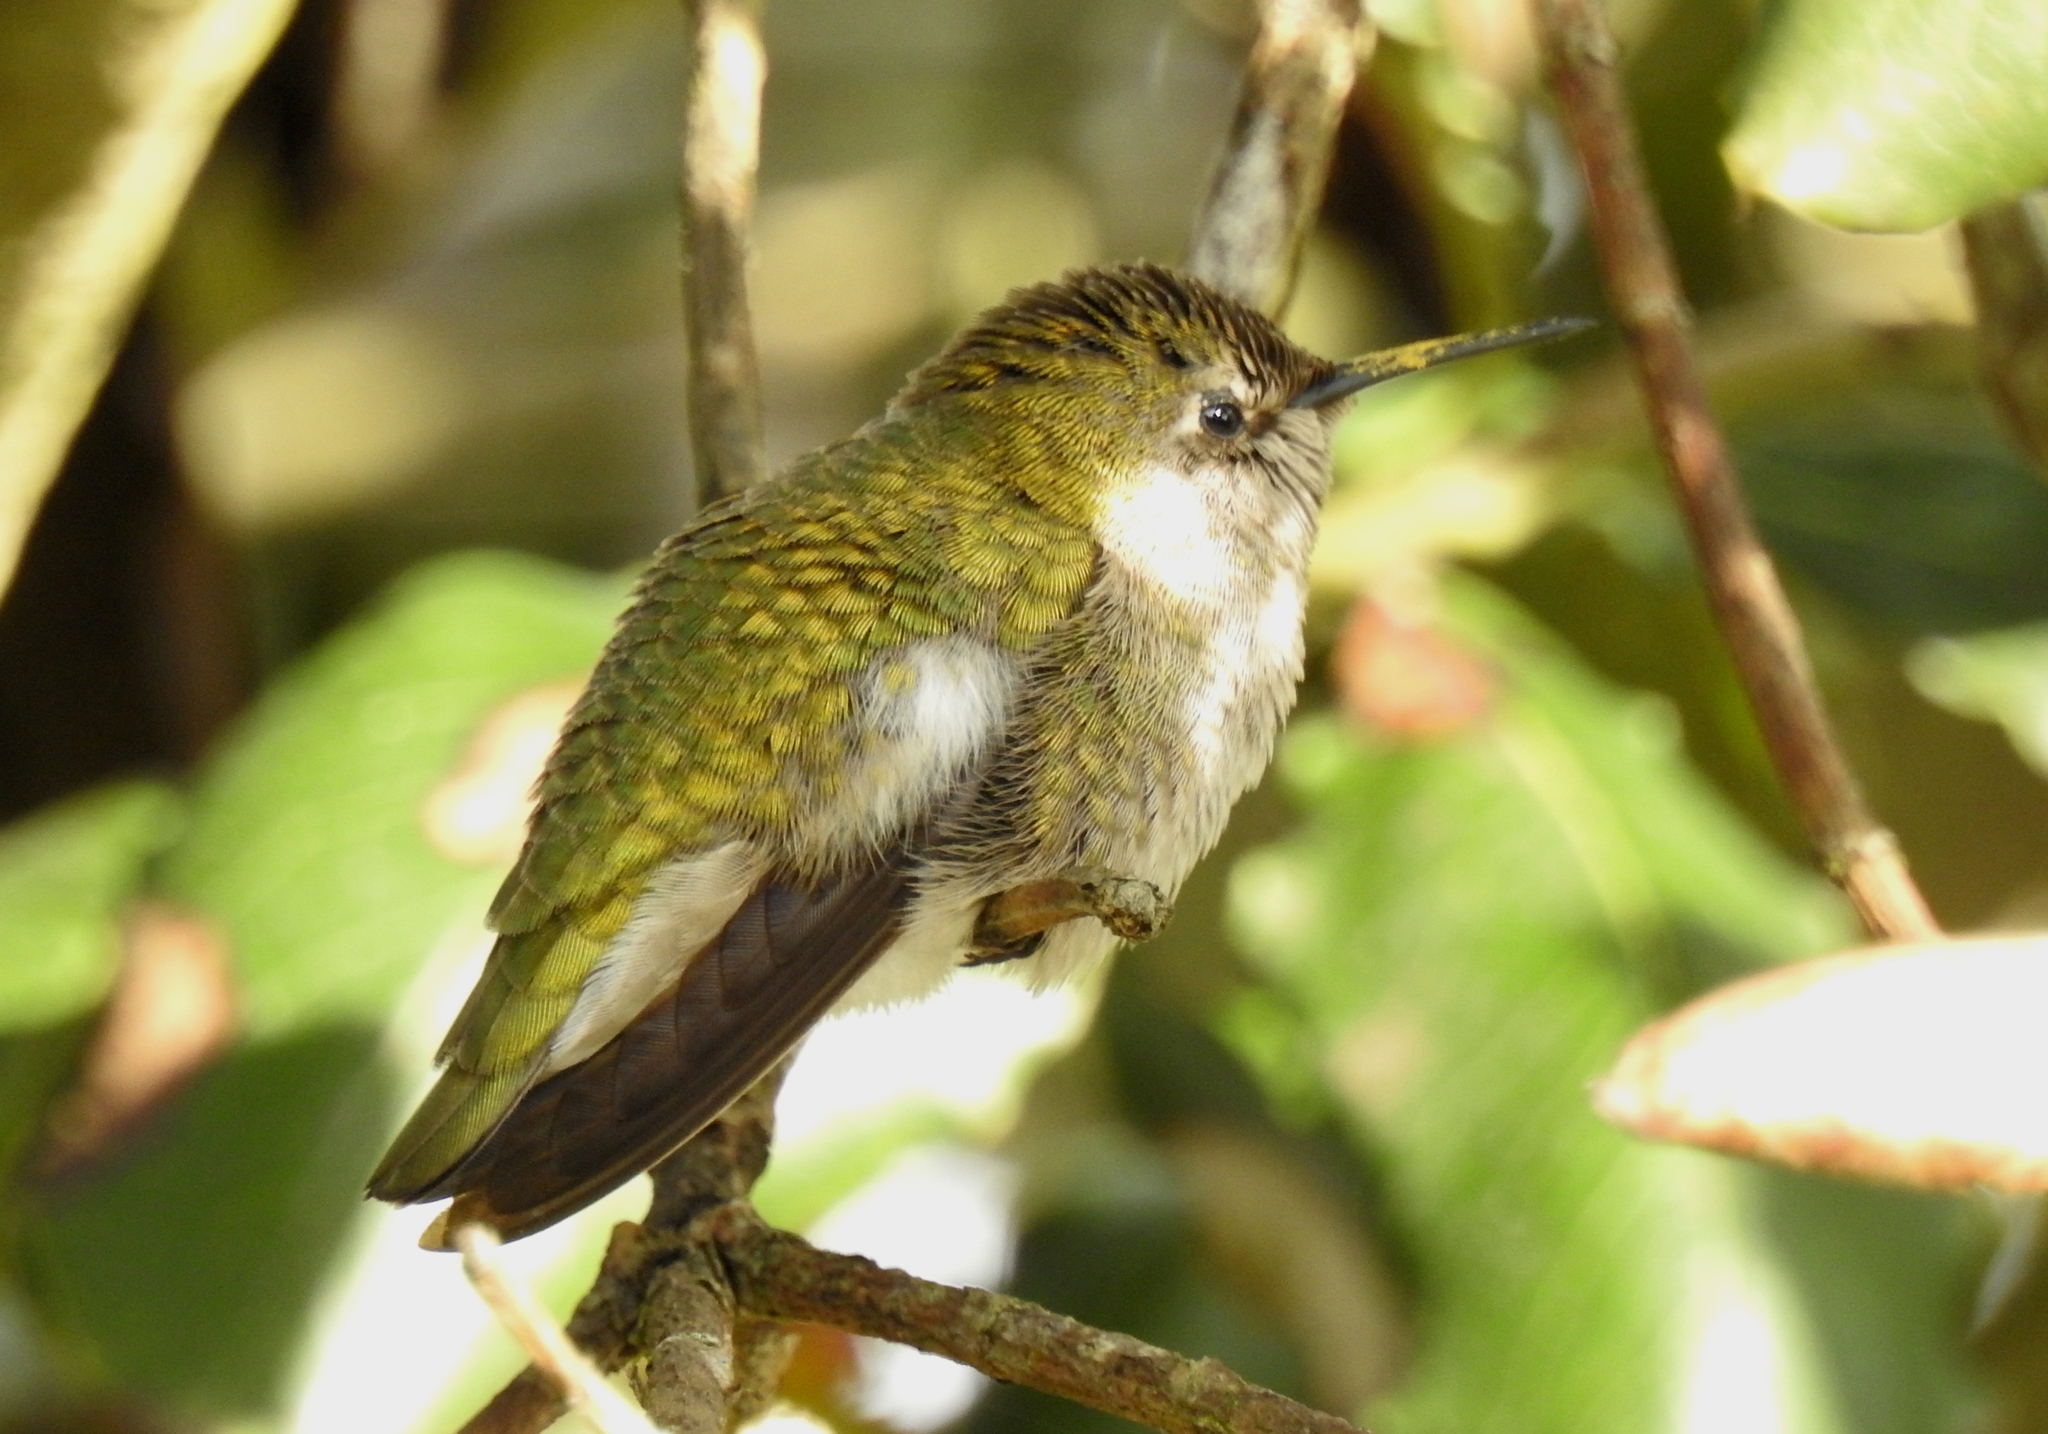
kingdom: Animalia
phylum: Chordata
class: Aves
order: Apodiformes
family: Trochilidae
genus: Calypte
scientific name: Calypte anna
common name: Anna's hummingbird
